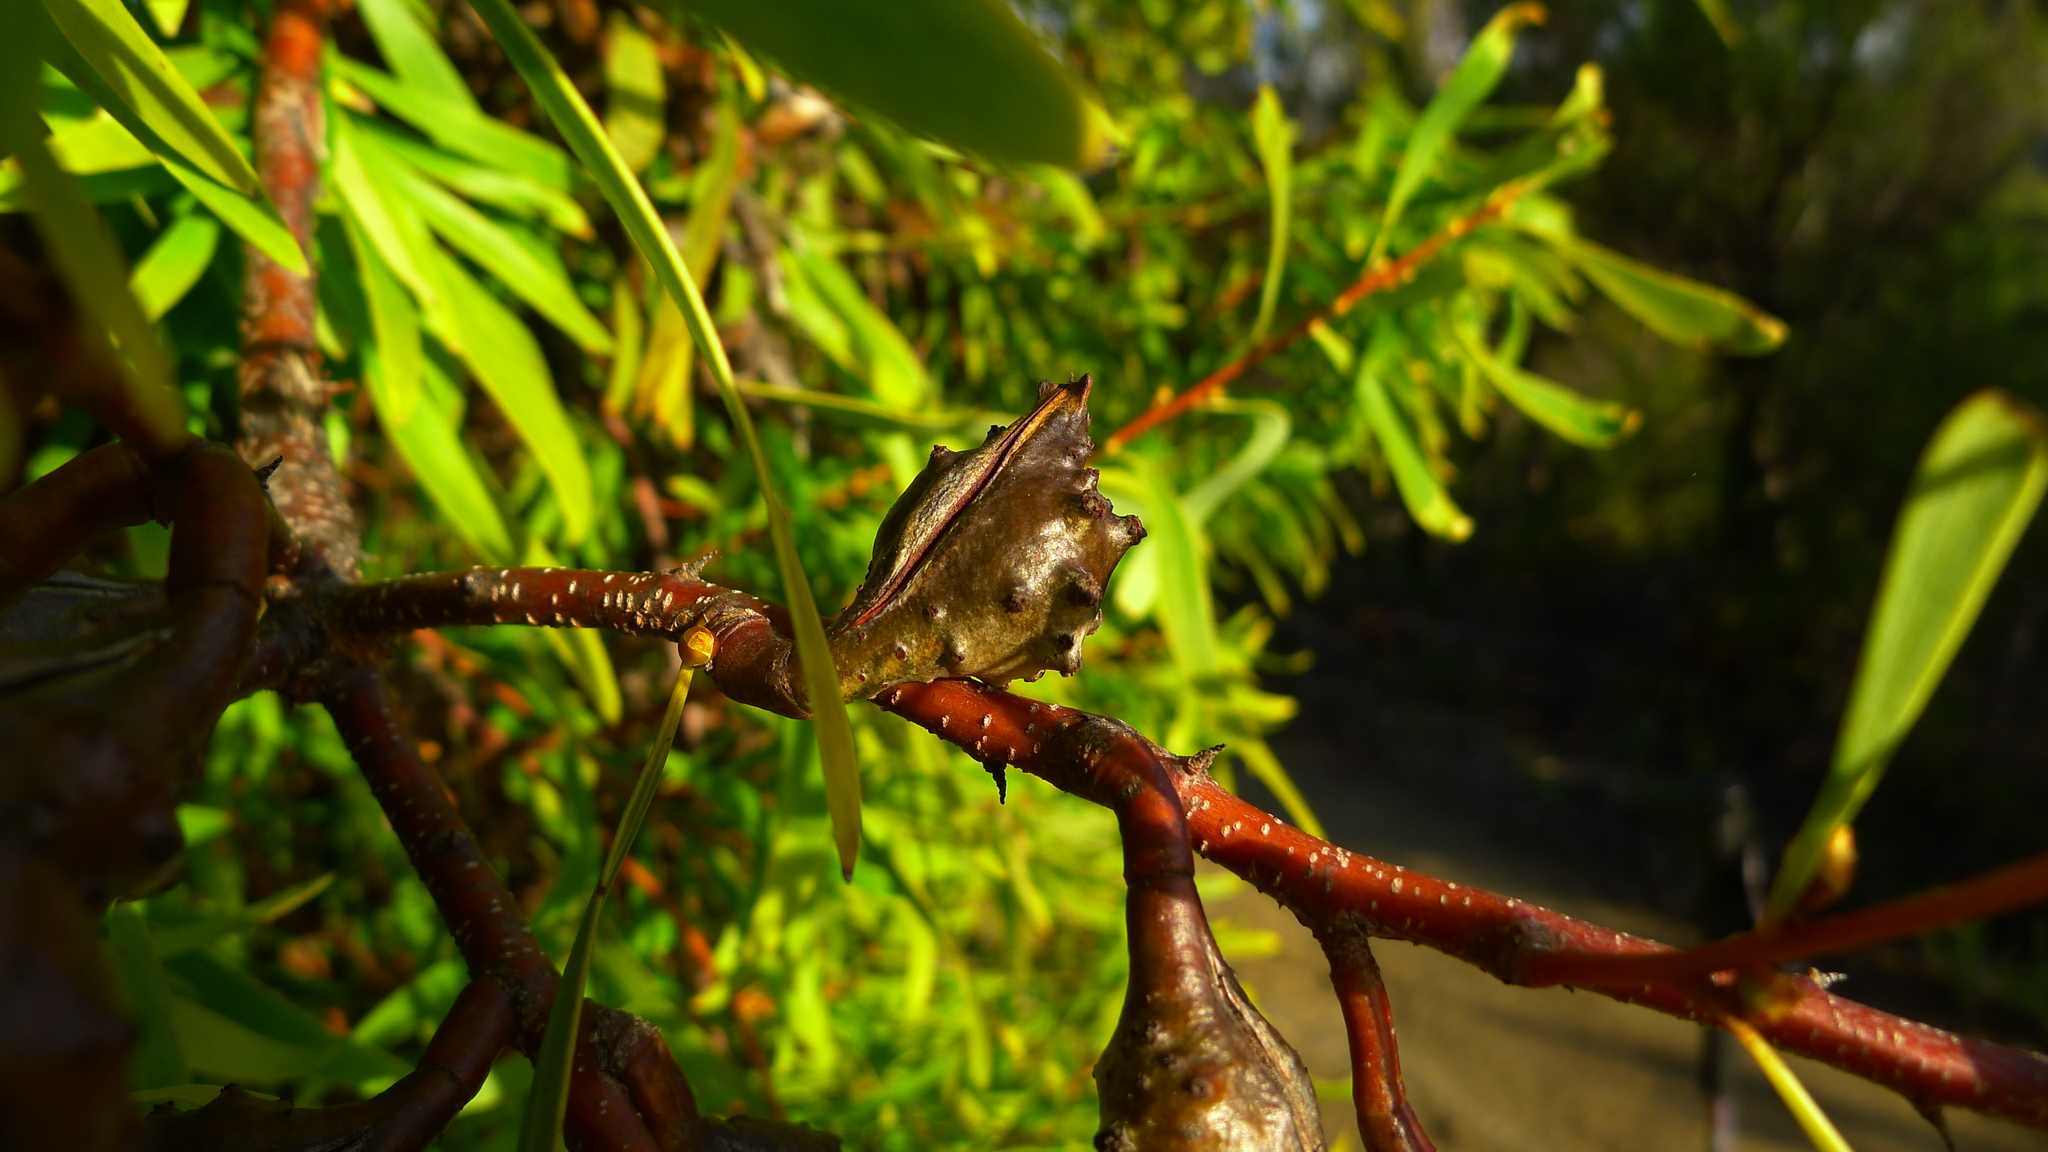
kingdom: Plantae
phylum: Tracheophyta
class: Magnoliopsida
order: Proteales
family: Proteaceae
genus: Hakea
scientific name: Hakea salicifolia
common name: Willow hakea
